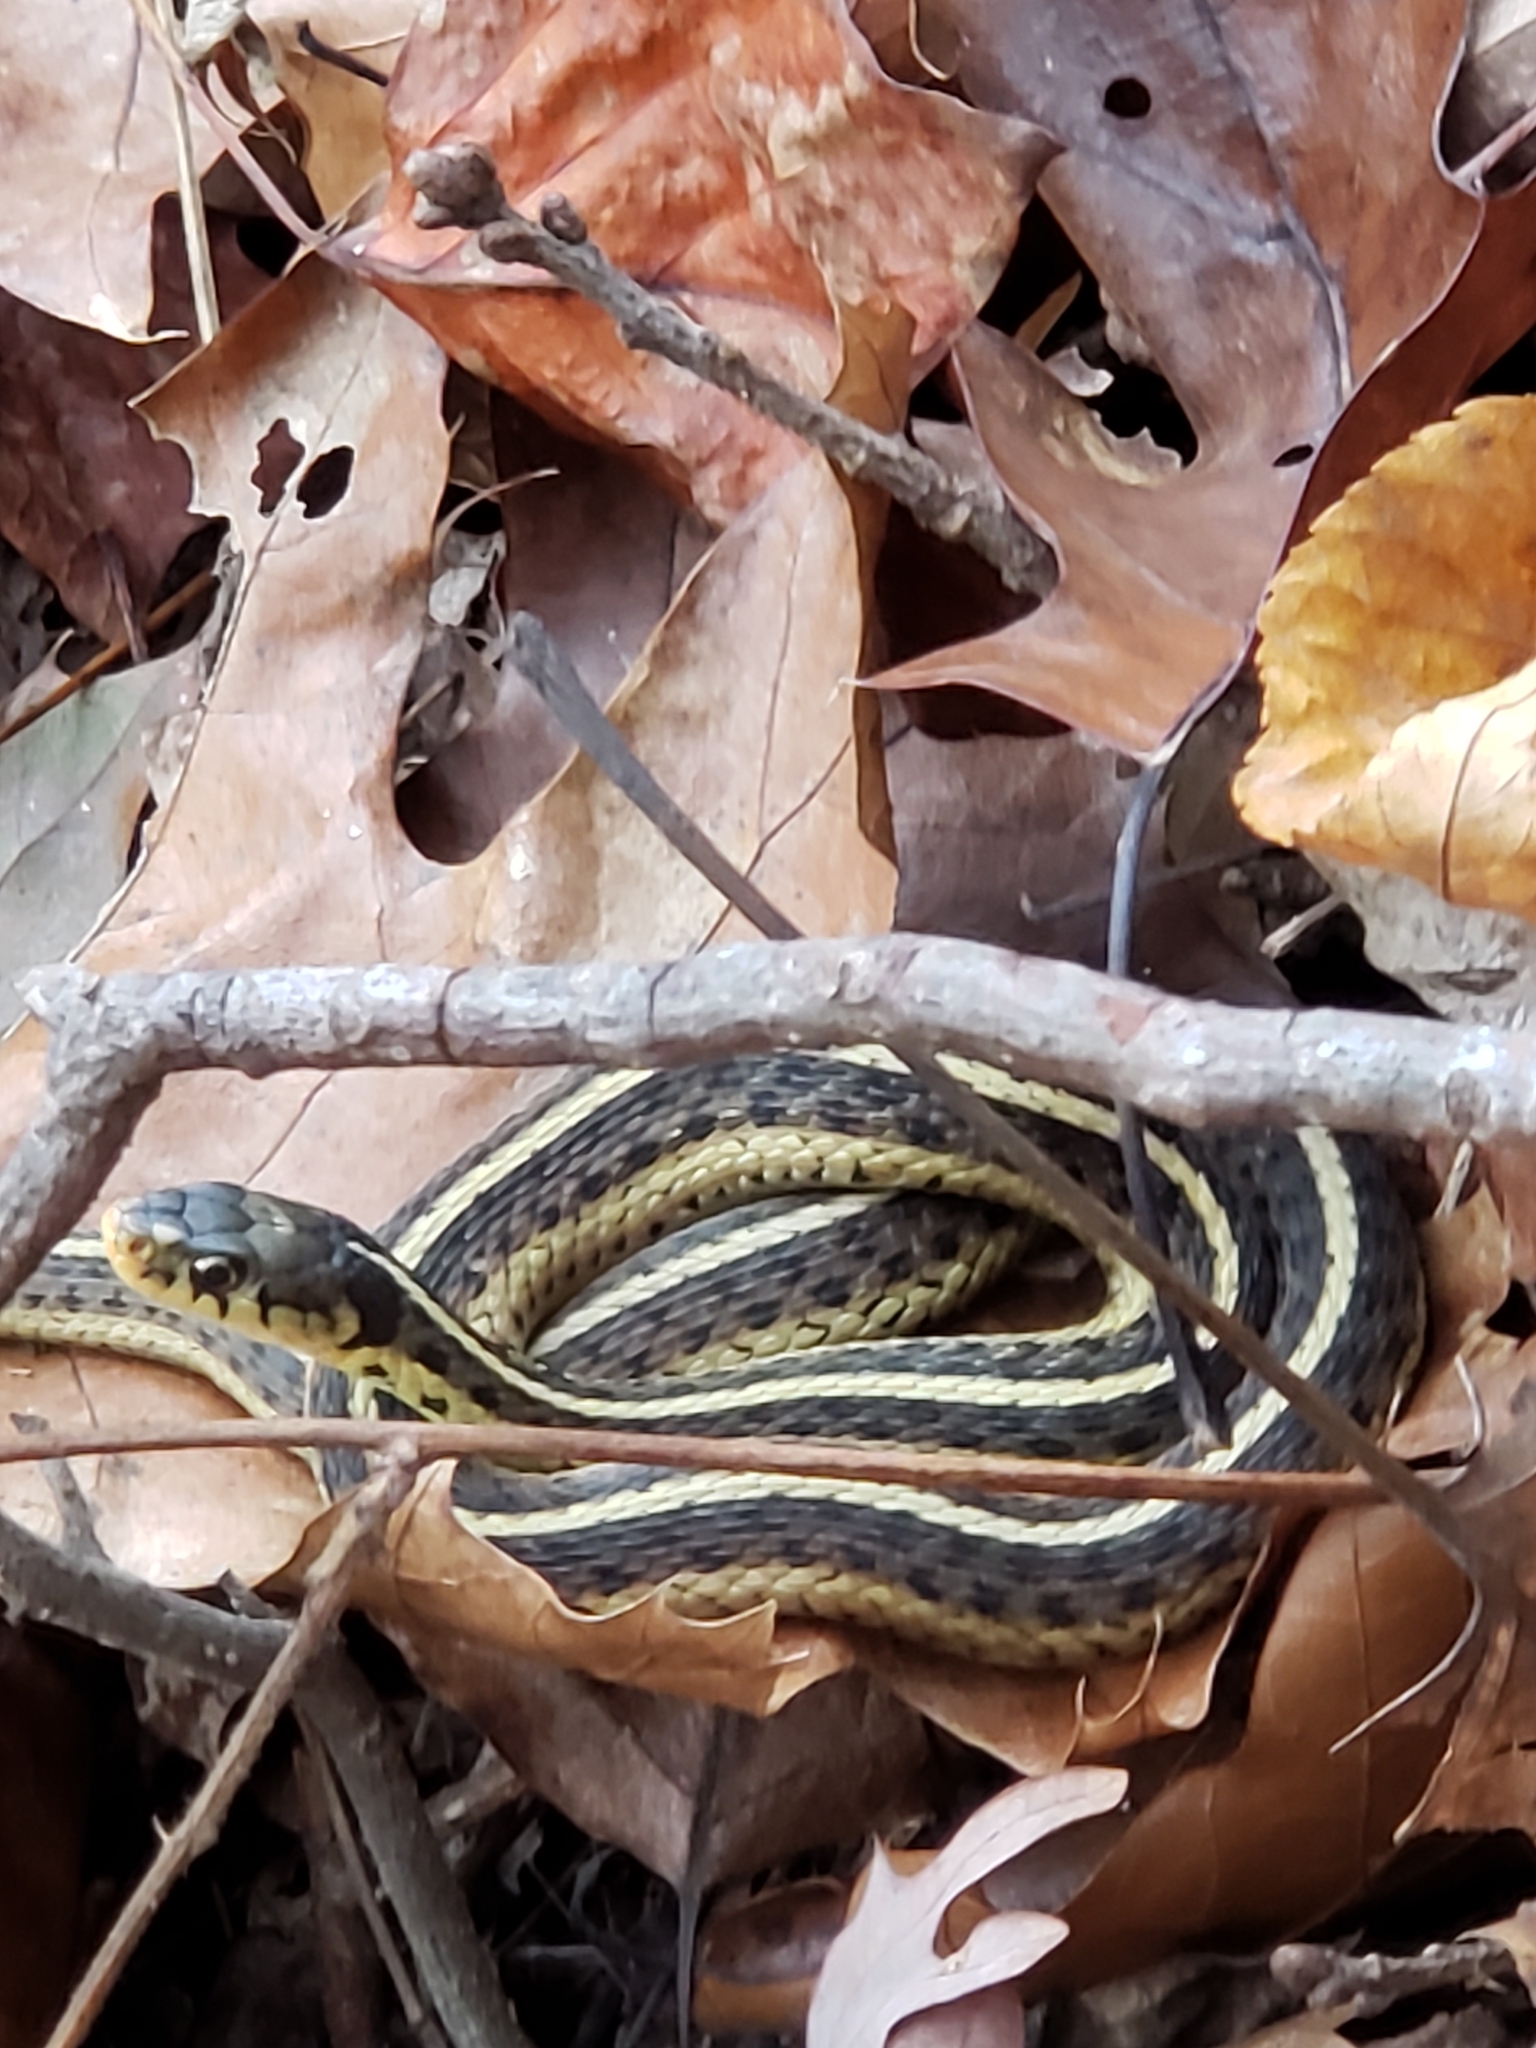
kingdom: Animalia
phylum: Chordata
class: Squamata
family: Colubridae
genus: Thamnophis
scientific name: Thamnophis sirtalis
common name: Common garter snake
